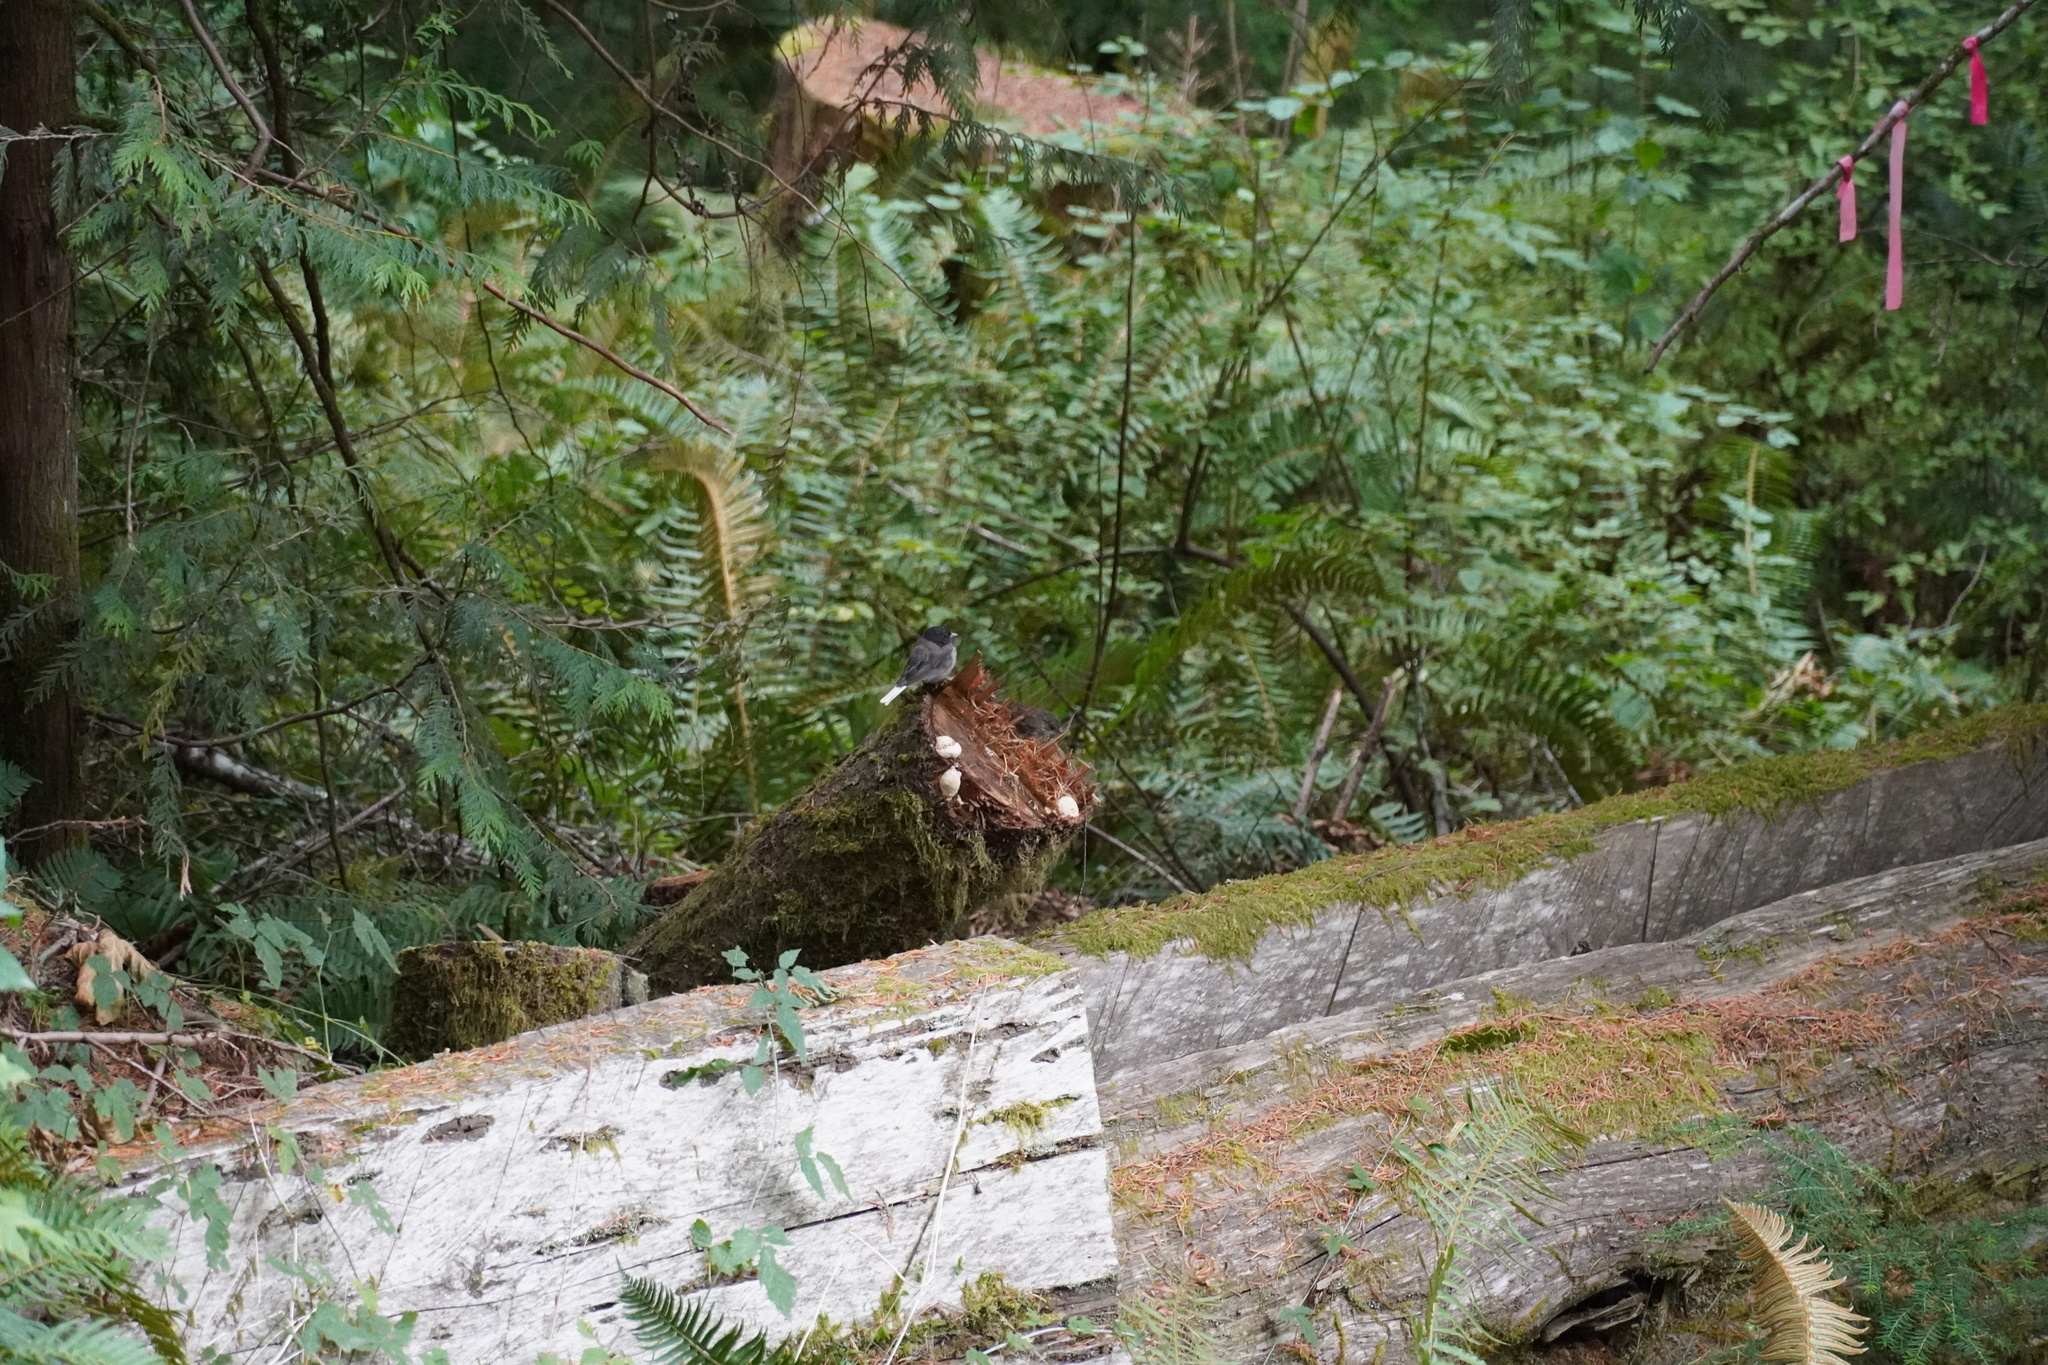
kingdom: Animalia
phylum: Chordata
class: Aves
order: Passeriformes
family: Passerellidae
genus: Junco
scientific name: Junco hyemalis
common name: Dark-eyed junco
